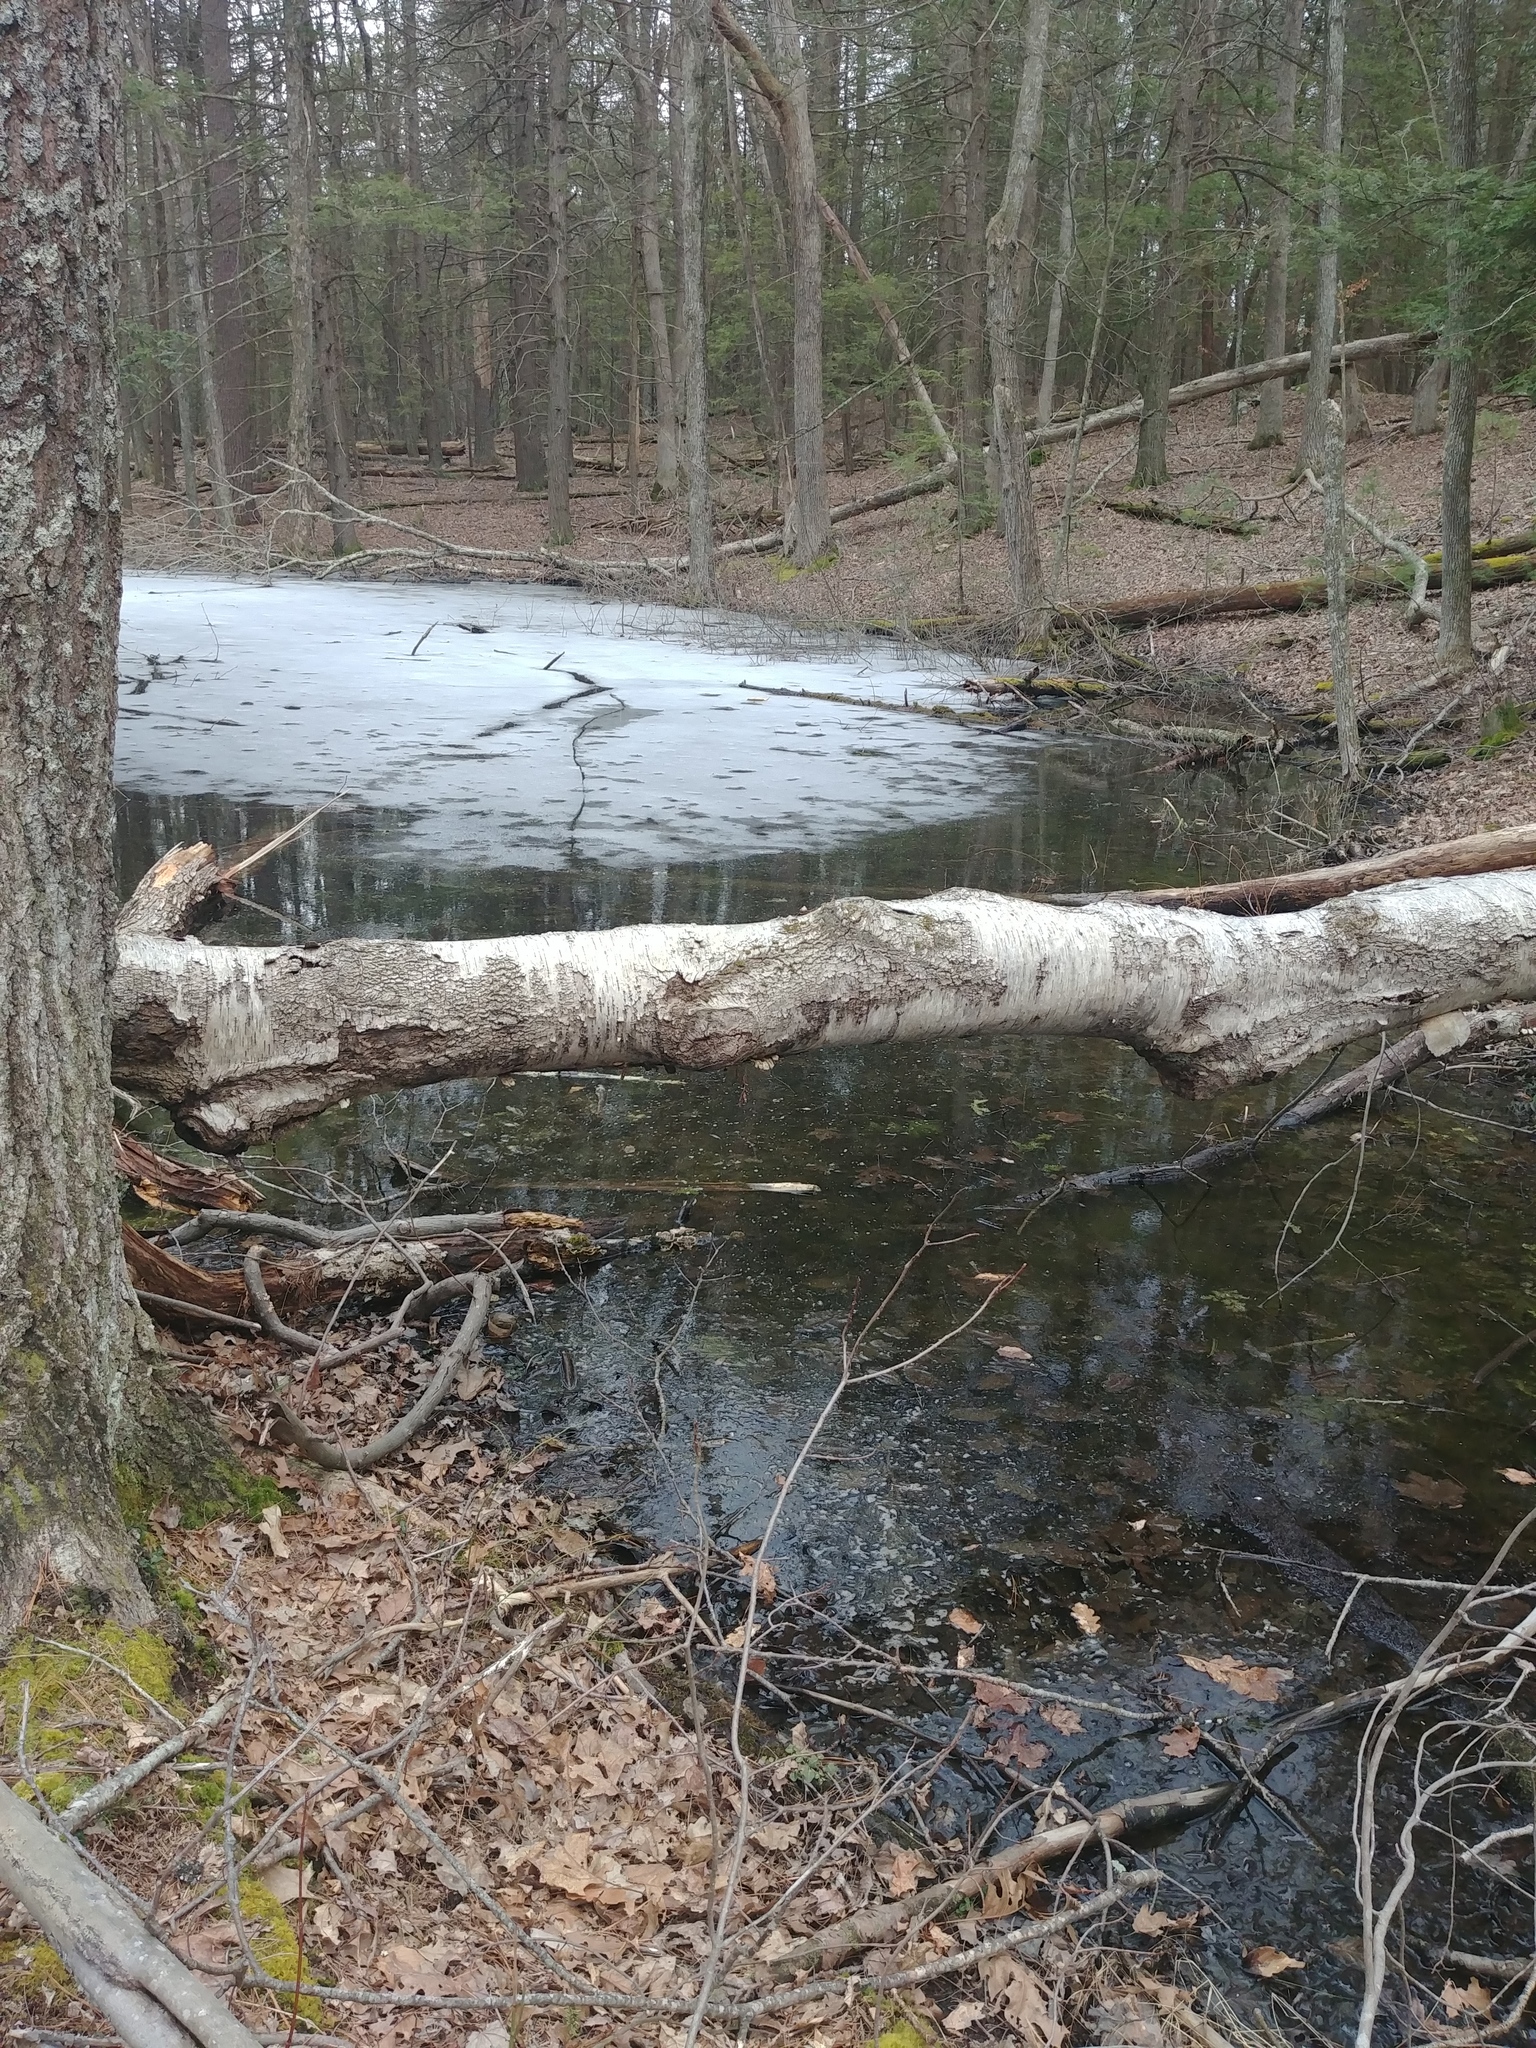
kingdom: Animalia
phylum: Chordata
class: Amphibia
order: Anura
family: Ranidae
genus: Lithobates
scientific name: Lithobates sylvaticus
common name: Wood frog
